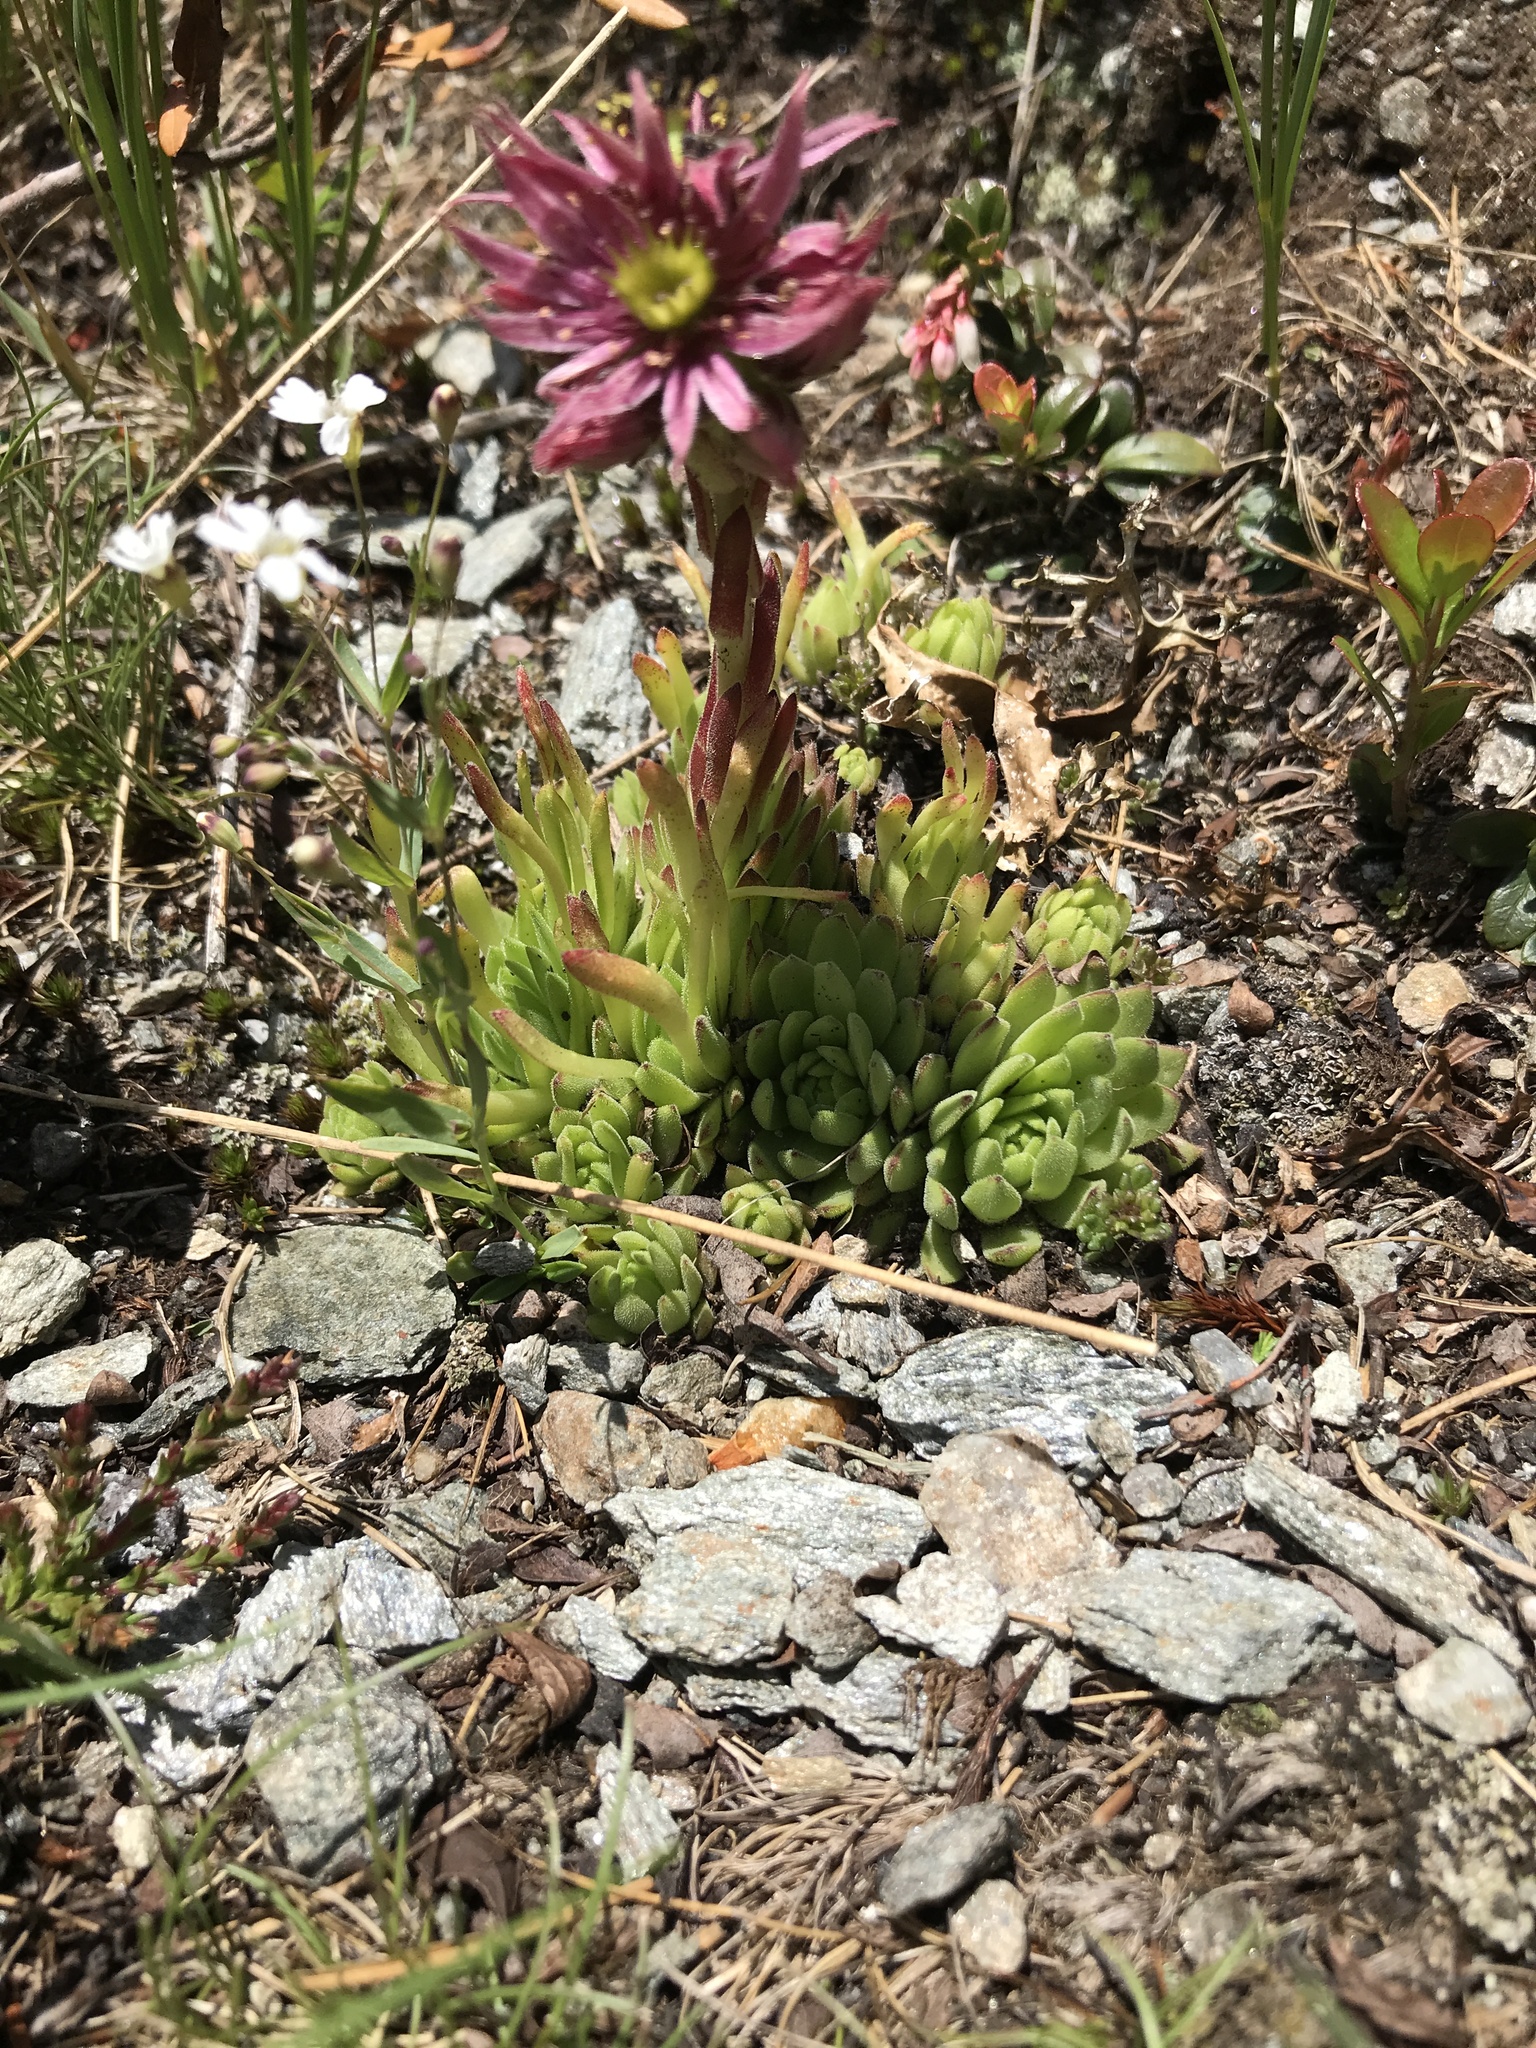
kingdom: Plantae
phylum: Tracheophyta
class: Magnoliopsida
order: Saxifragales
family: Crassulaceae
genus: Sempervivum
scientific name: Sempervivum montanum
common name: Mountain house-leek
